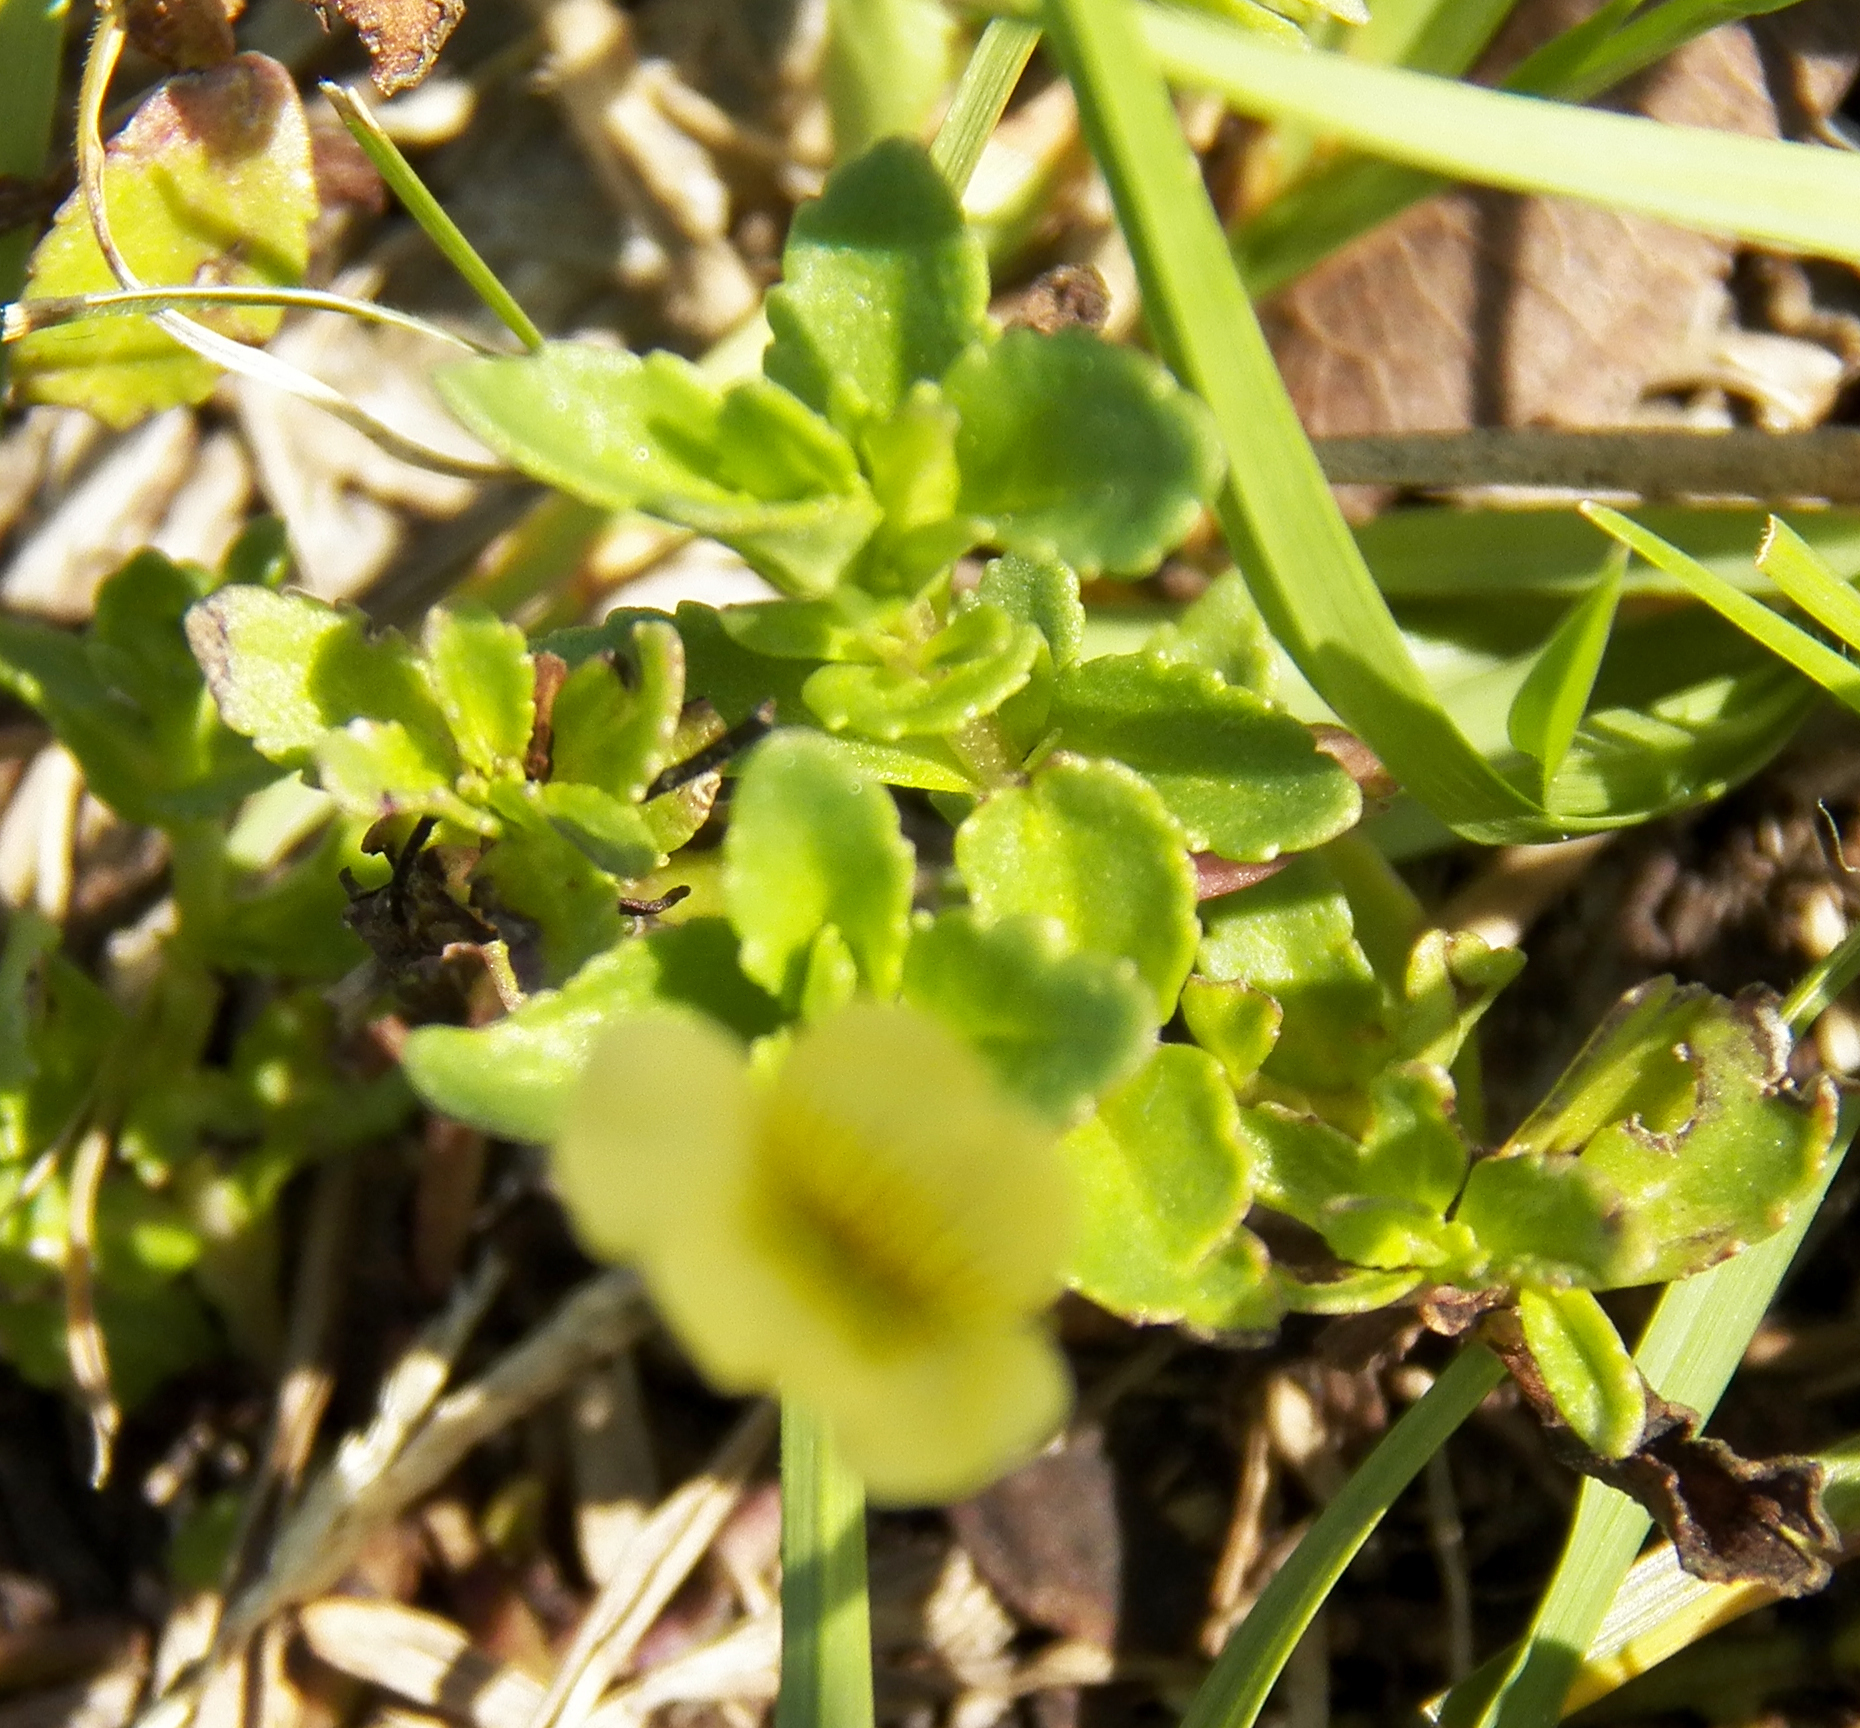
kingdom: Plantae
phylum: Tracheophyta
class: Magnoliopsida
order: Lamiales
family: Plantaginaceae
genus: Mecardonia
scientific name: Mecardonia procumbens
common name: Baby jump-up
